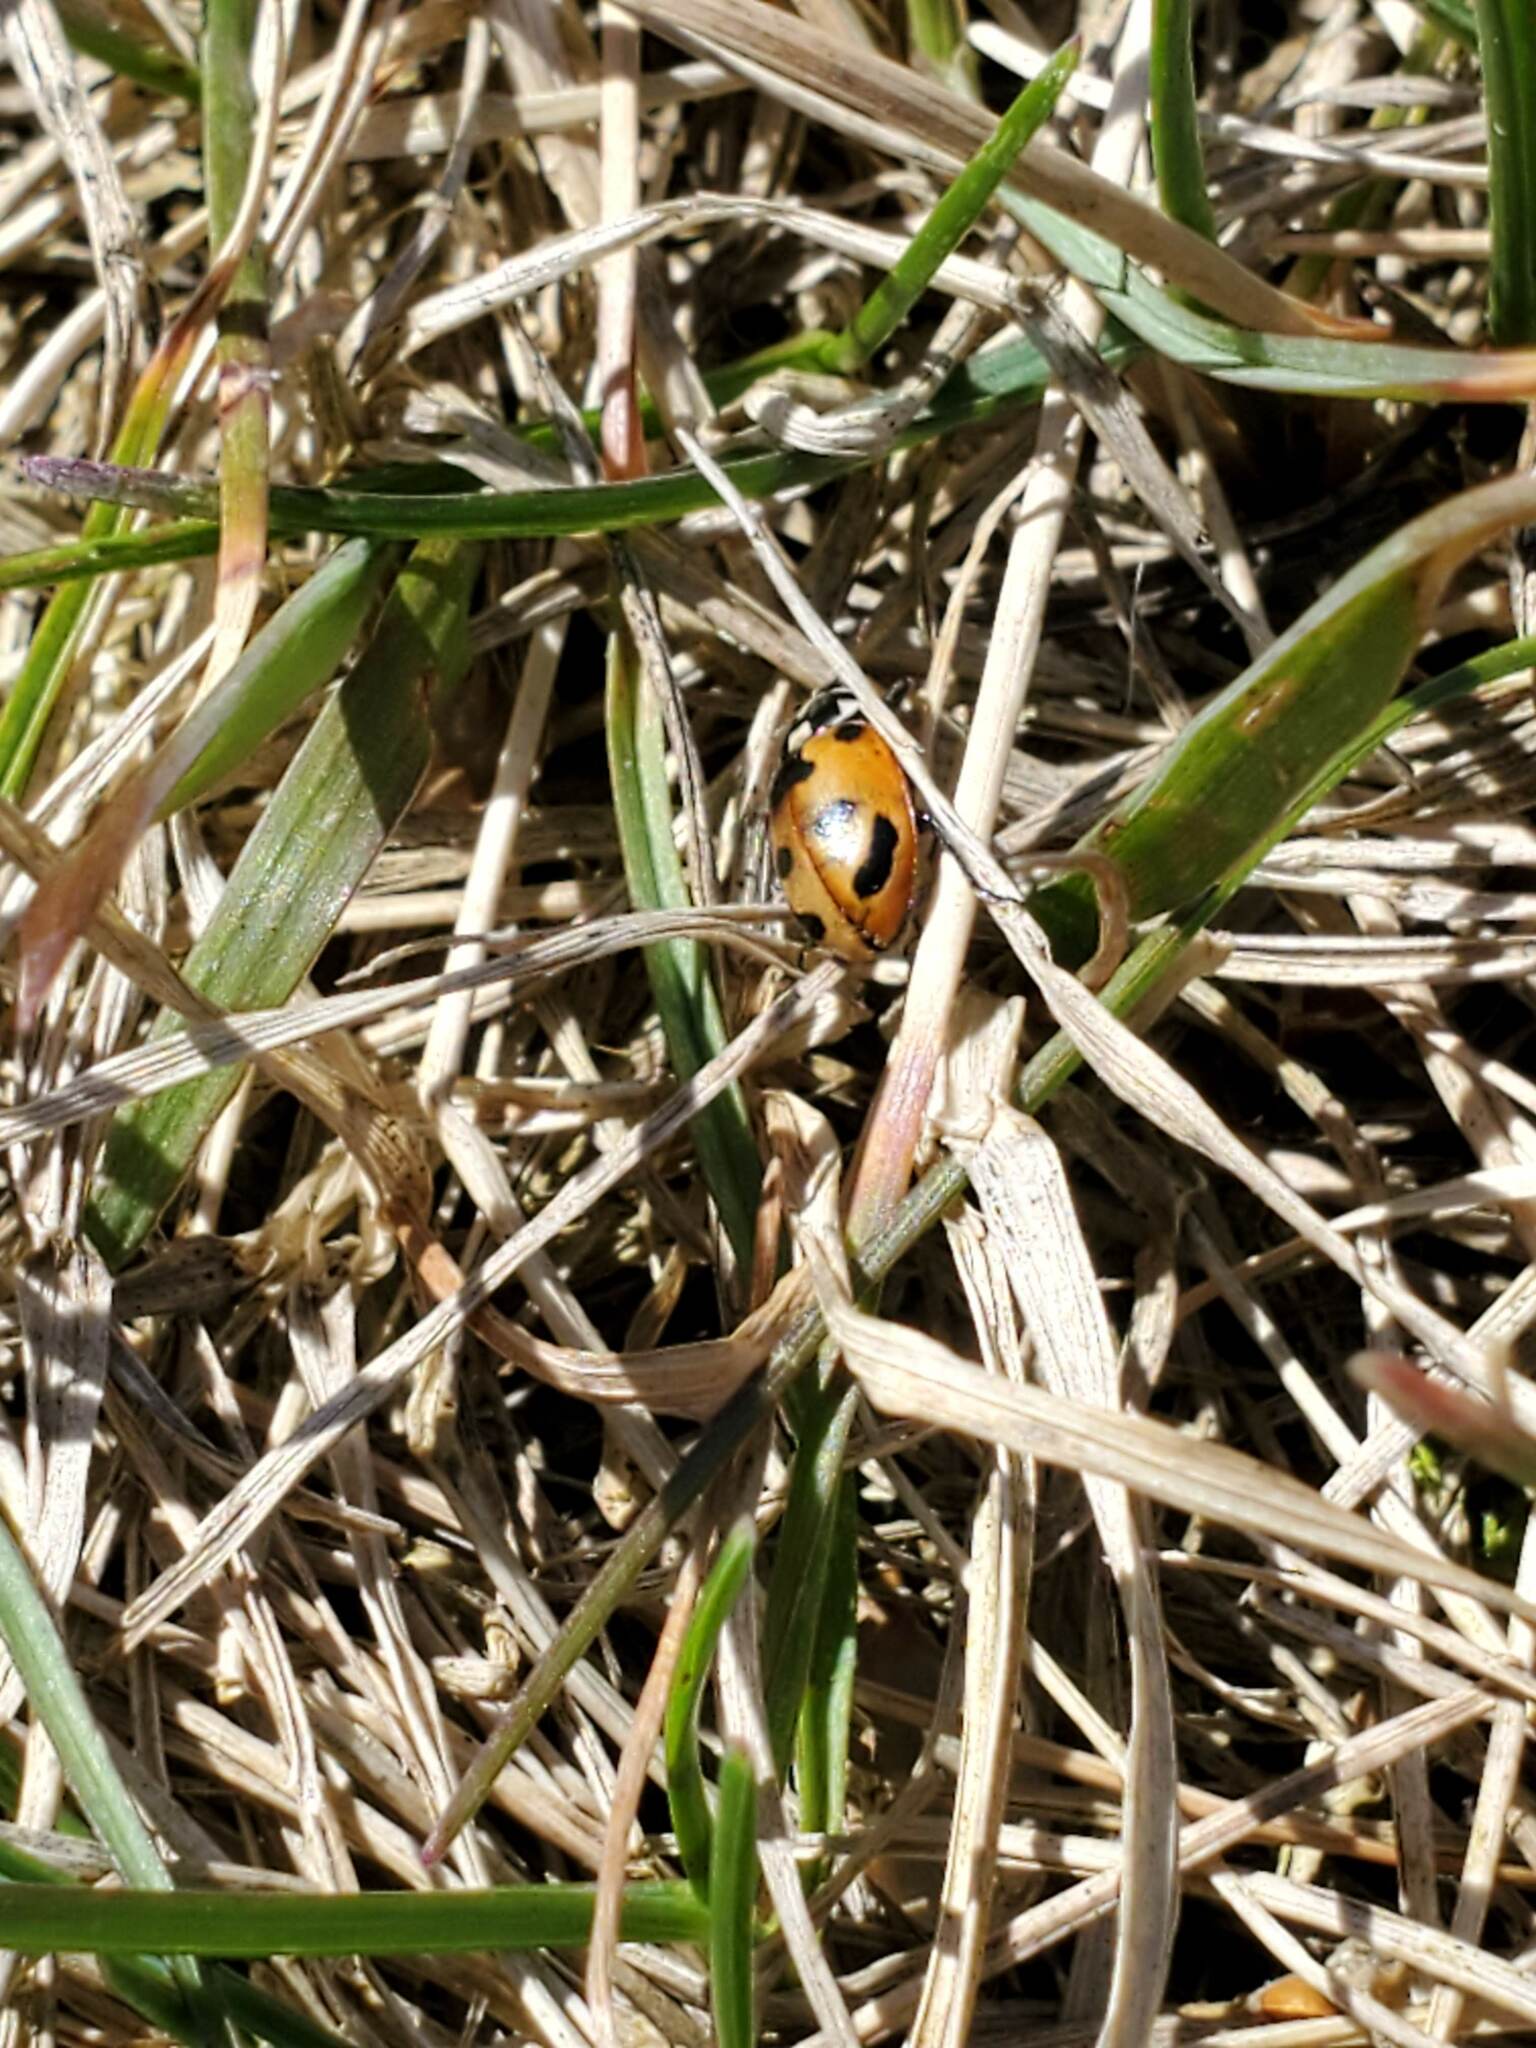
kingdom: Animalia
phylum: Arthropoda
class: Insecta
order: Coleoptera
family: Coccinellidae
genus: Hippodamia
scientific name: Hippodamia parenthesis
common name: Parenthesis lady beetle
